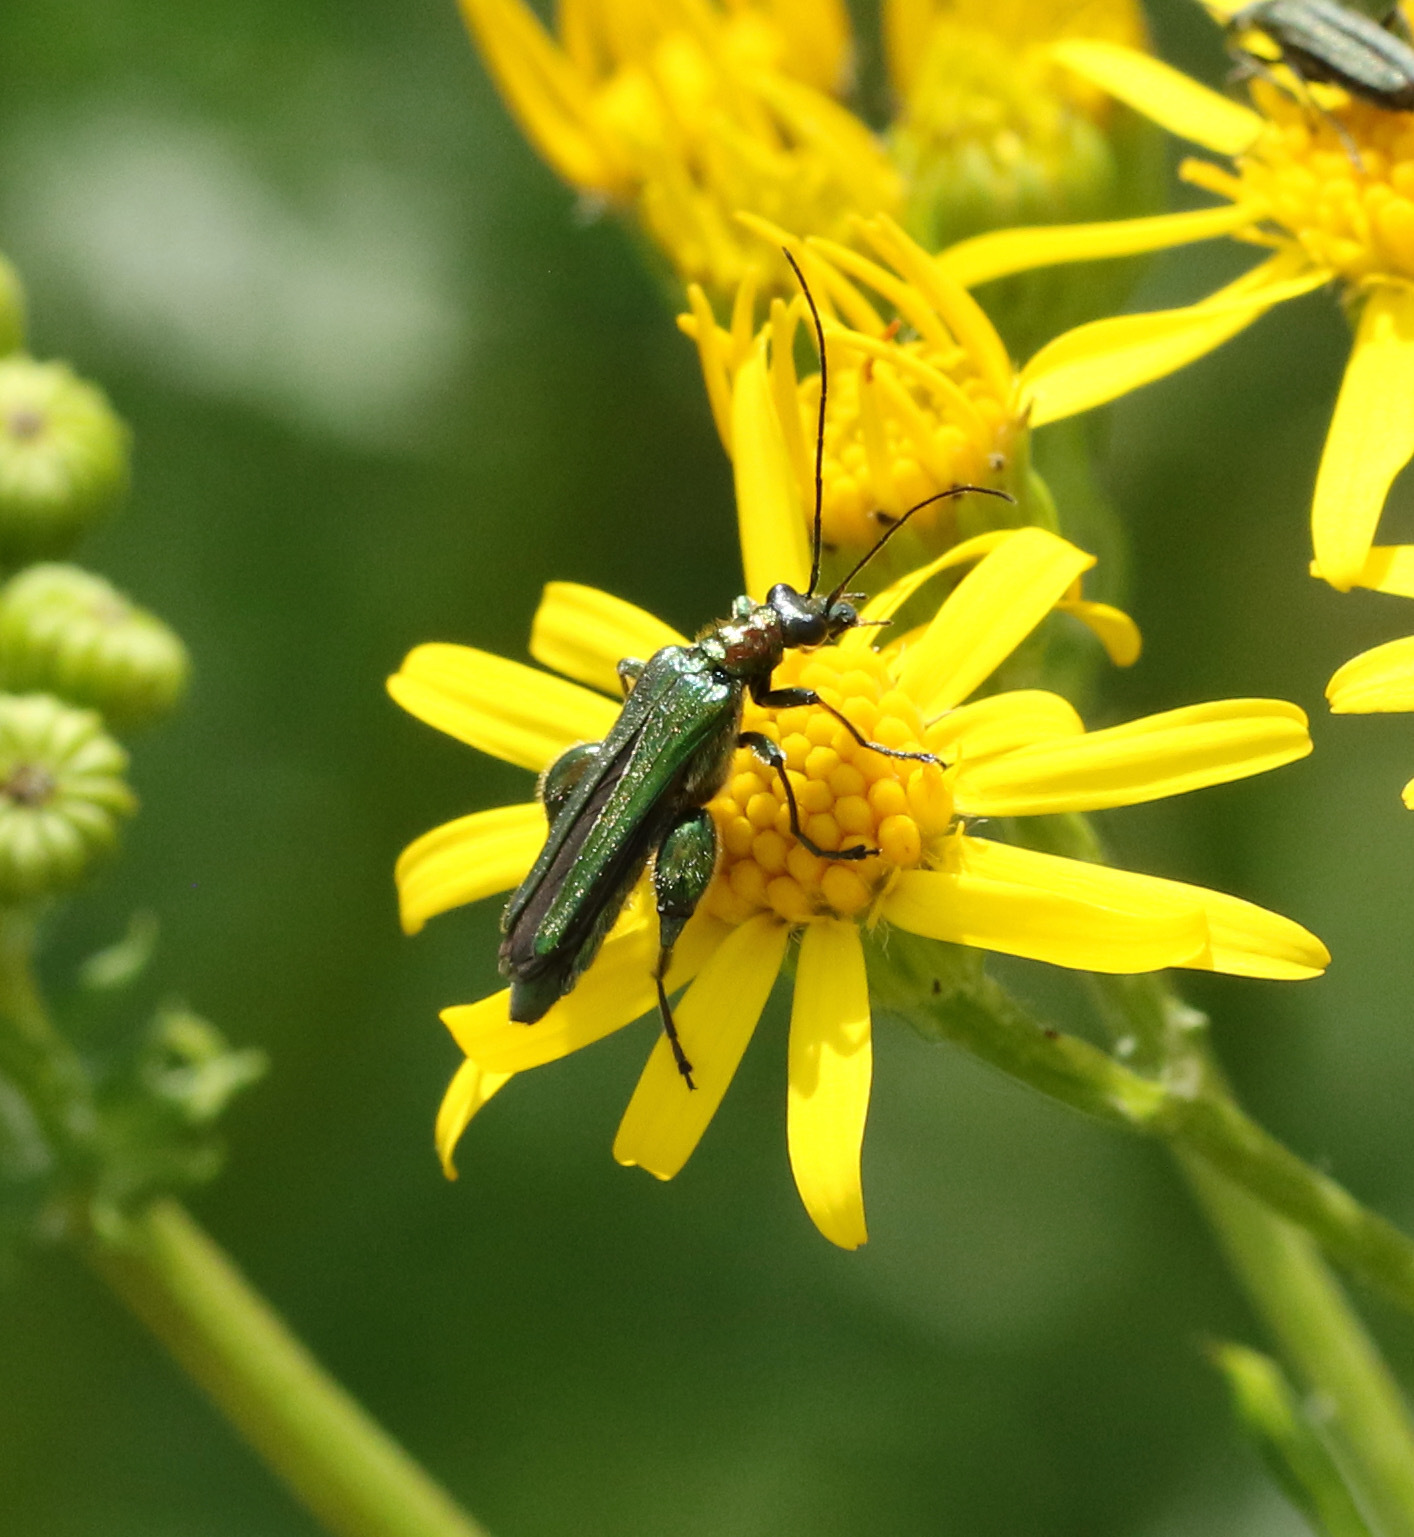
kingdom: Animalia
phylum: Arthropoda
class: Insecta
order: Coleoptera
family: Oedemeridae
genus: Oedemera
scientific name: Oedemera nobilis
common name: Swollen-thighed beetle
